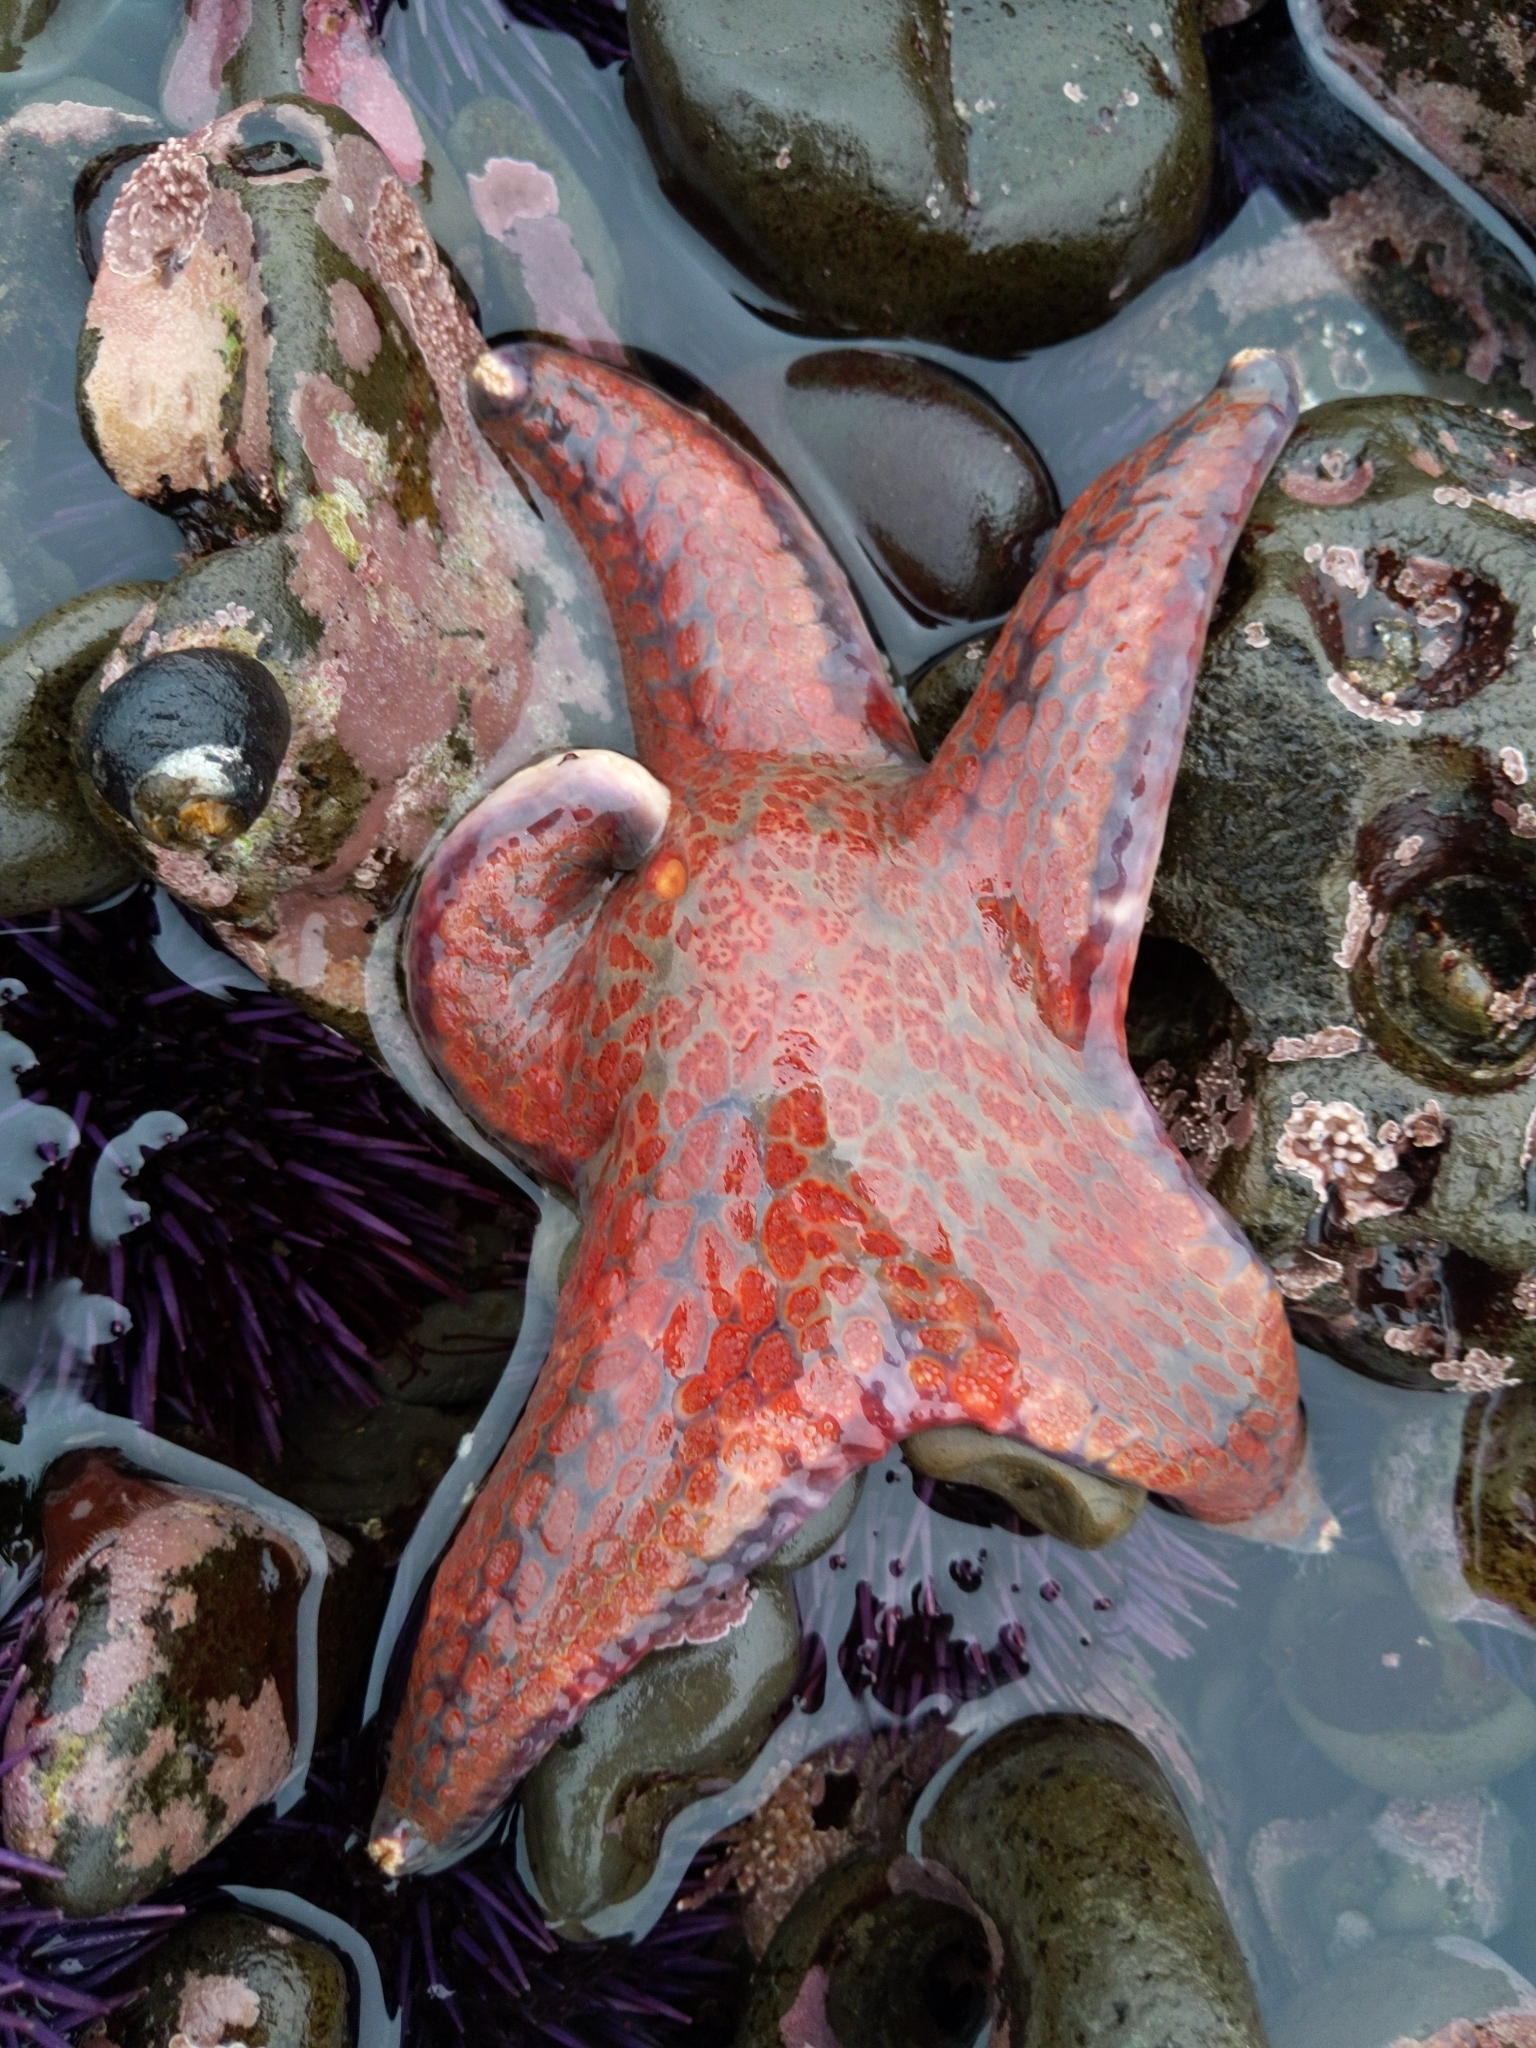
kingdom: Animalia
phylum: Echinodermata
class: Asteroidea
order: Valvatida
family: Asteropseidae
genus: Dermasterias
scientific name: Dermasterias imbricata
